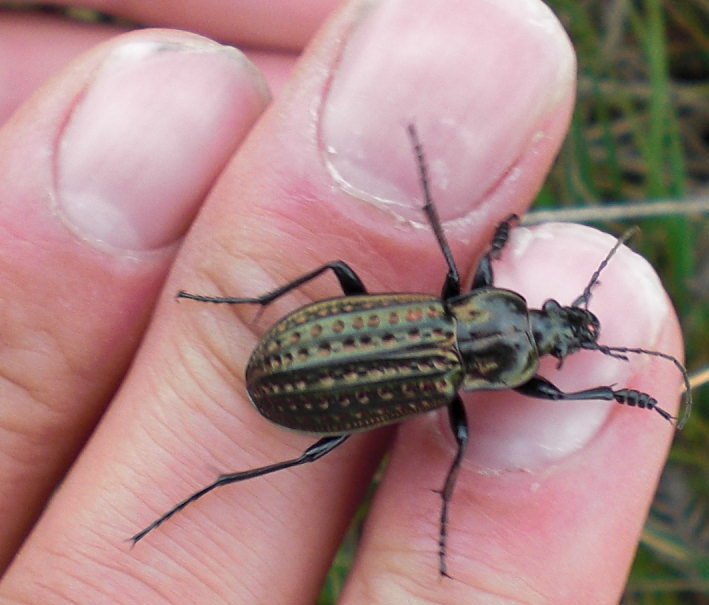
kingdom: Animalia
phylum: Arthropoda
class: Insecta
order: Coleoptera
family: Carabidae
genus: Carabus
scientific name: Carabus clatratus
